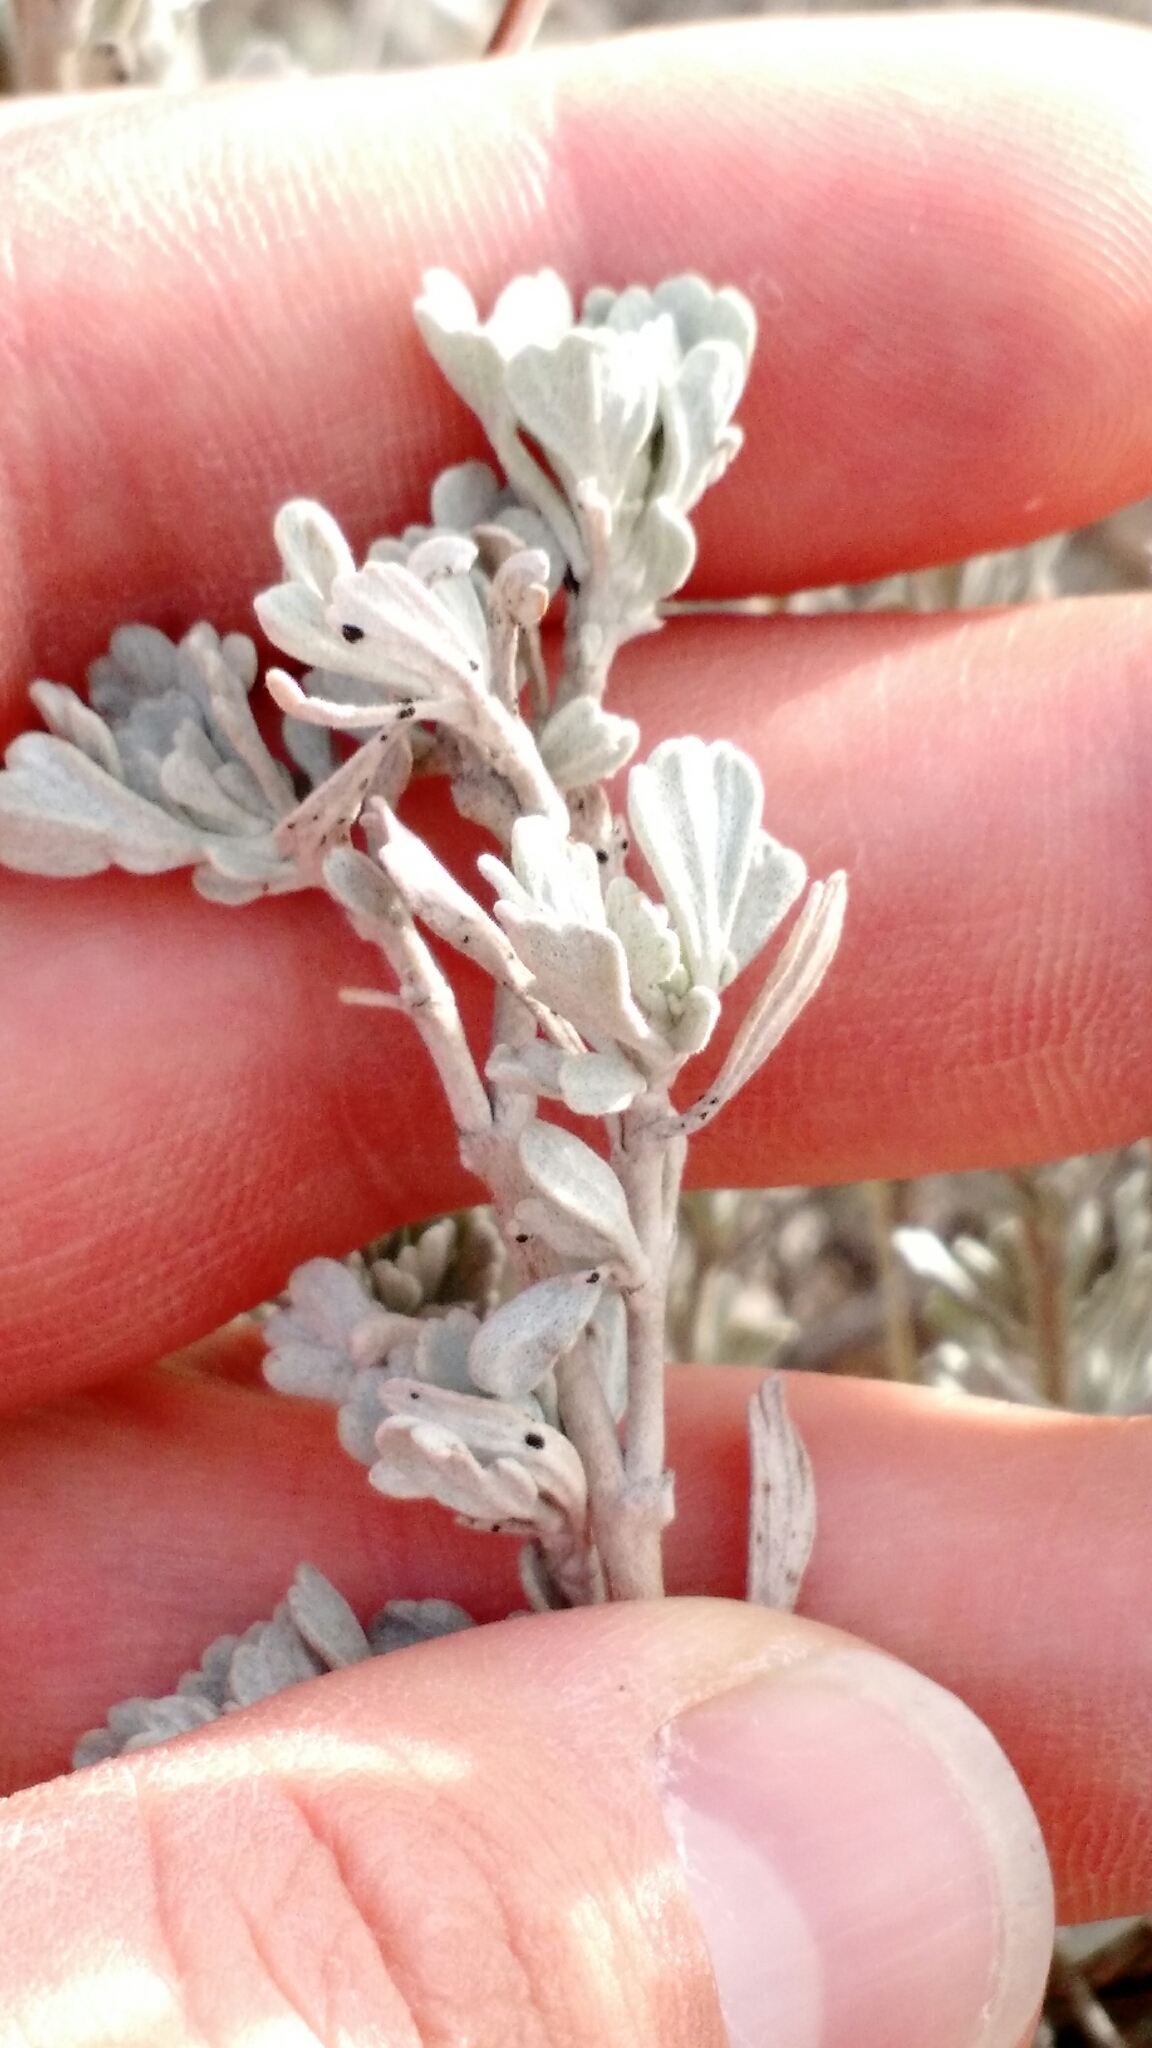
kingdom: Plantae
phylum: Tracheophyta
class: Magnoliopsida
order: Asterales
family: Asteraceae
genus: Artemisia
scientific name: Artemisia tridentata
